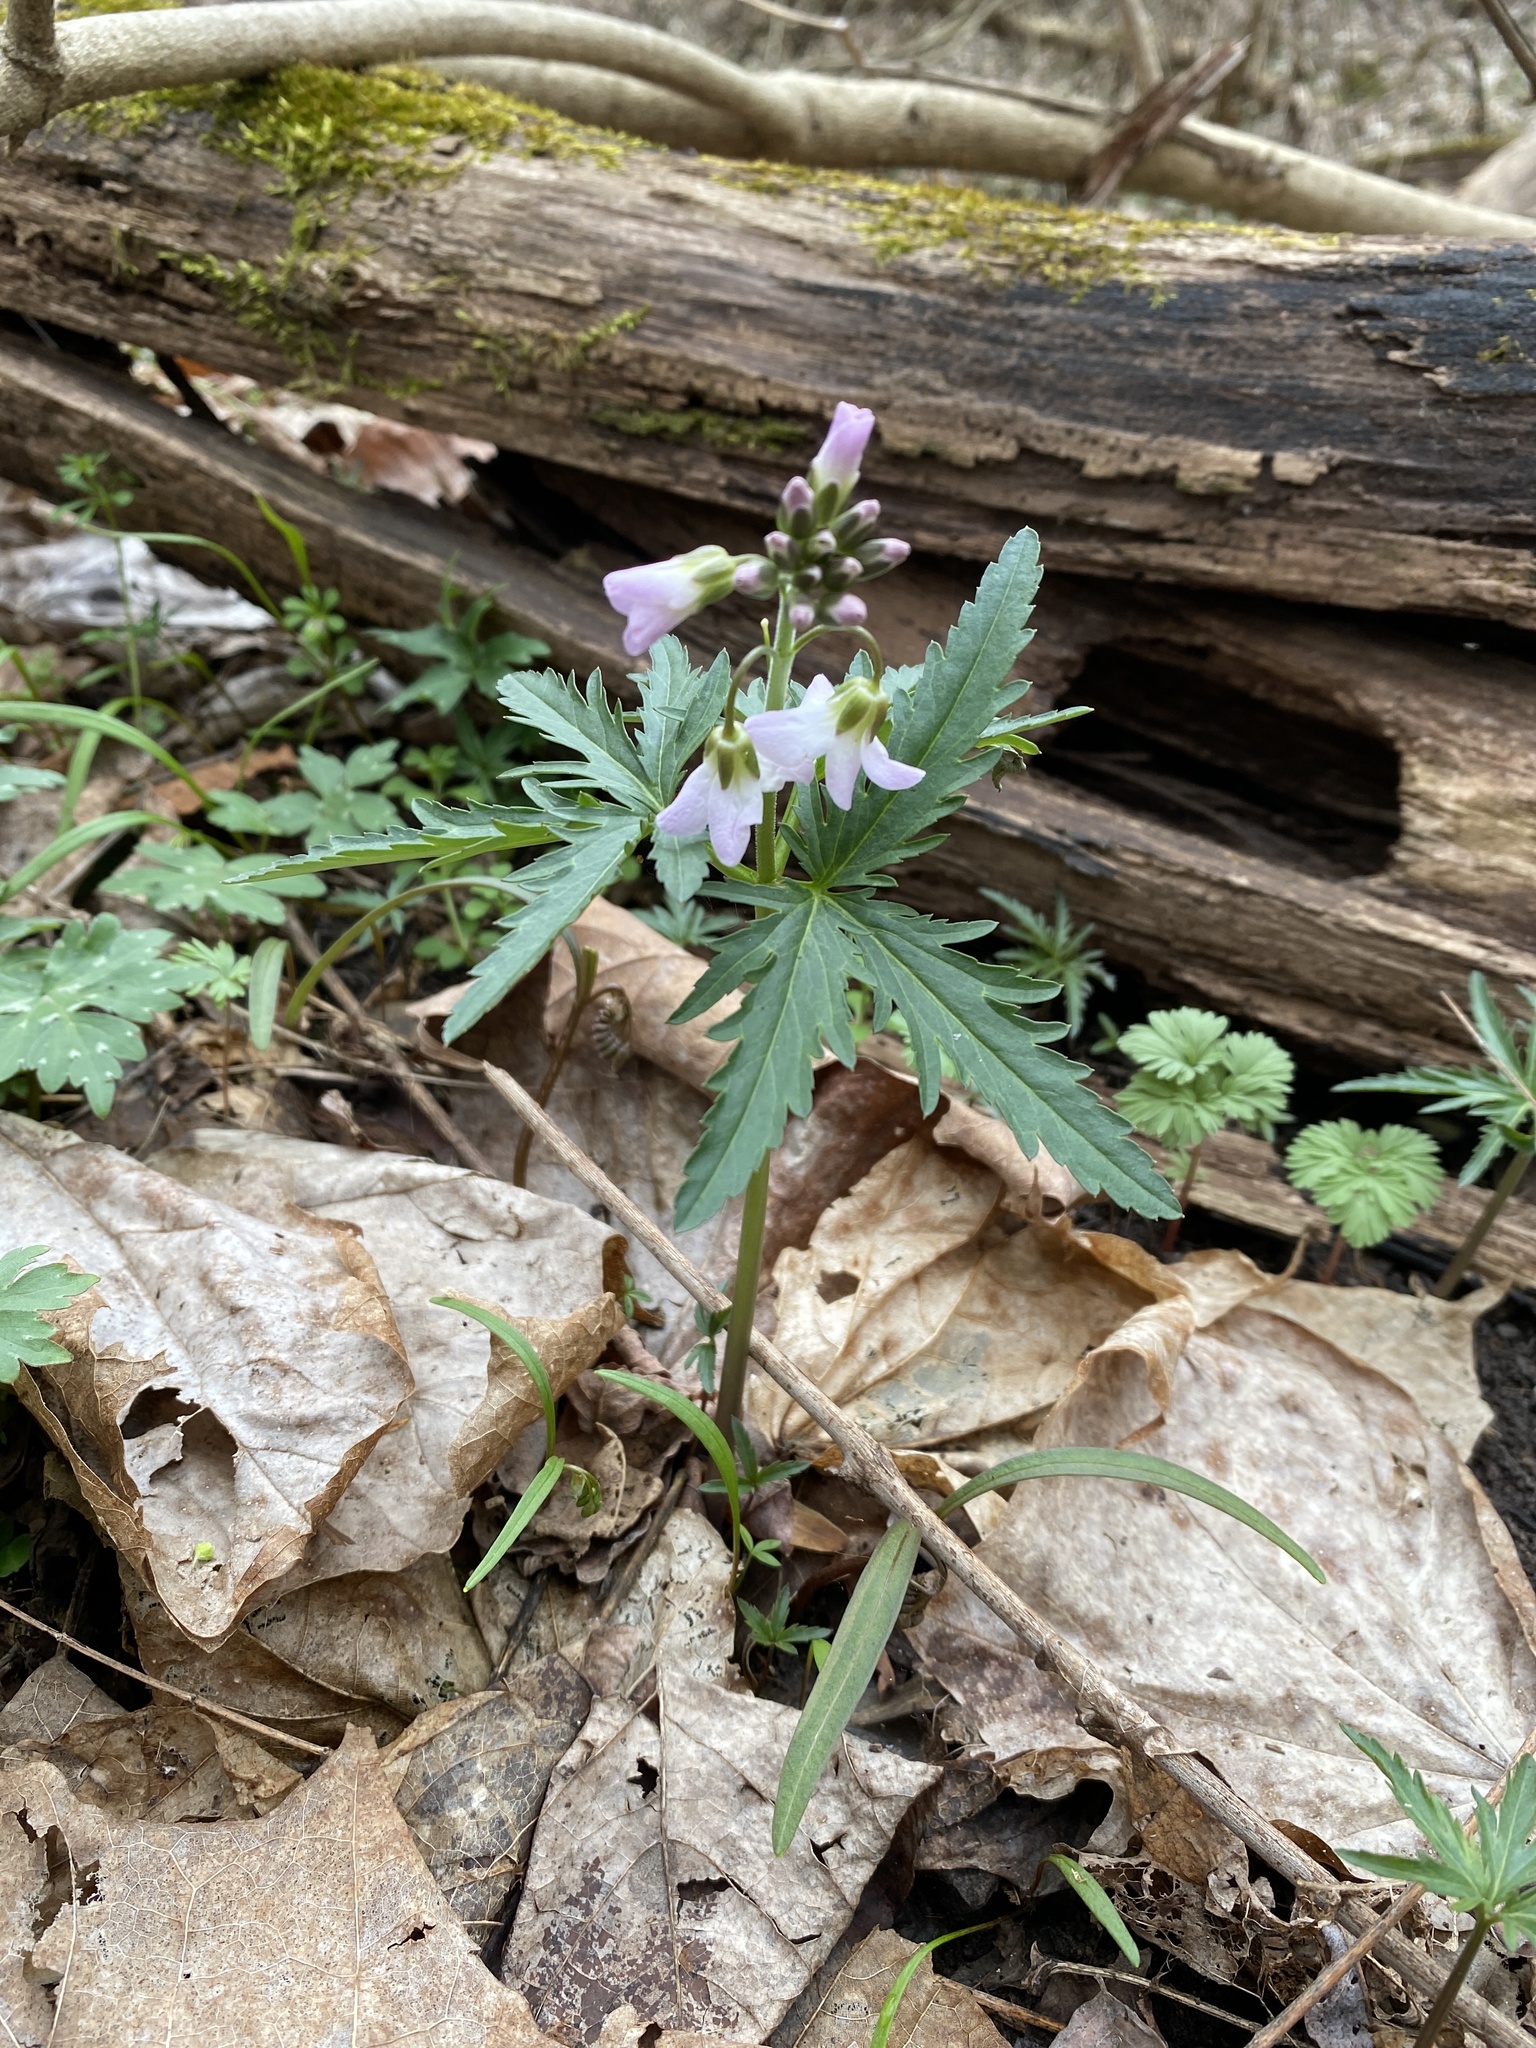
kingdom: Plantae
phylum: Tracheophyta
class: Magnoliopsida
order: Brassicales
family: Brassicaceae
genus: Cardamine
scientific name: Cardamine concatenata
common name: Cut-leaf toothcup
